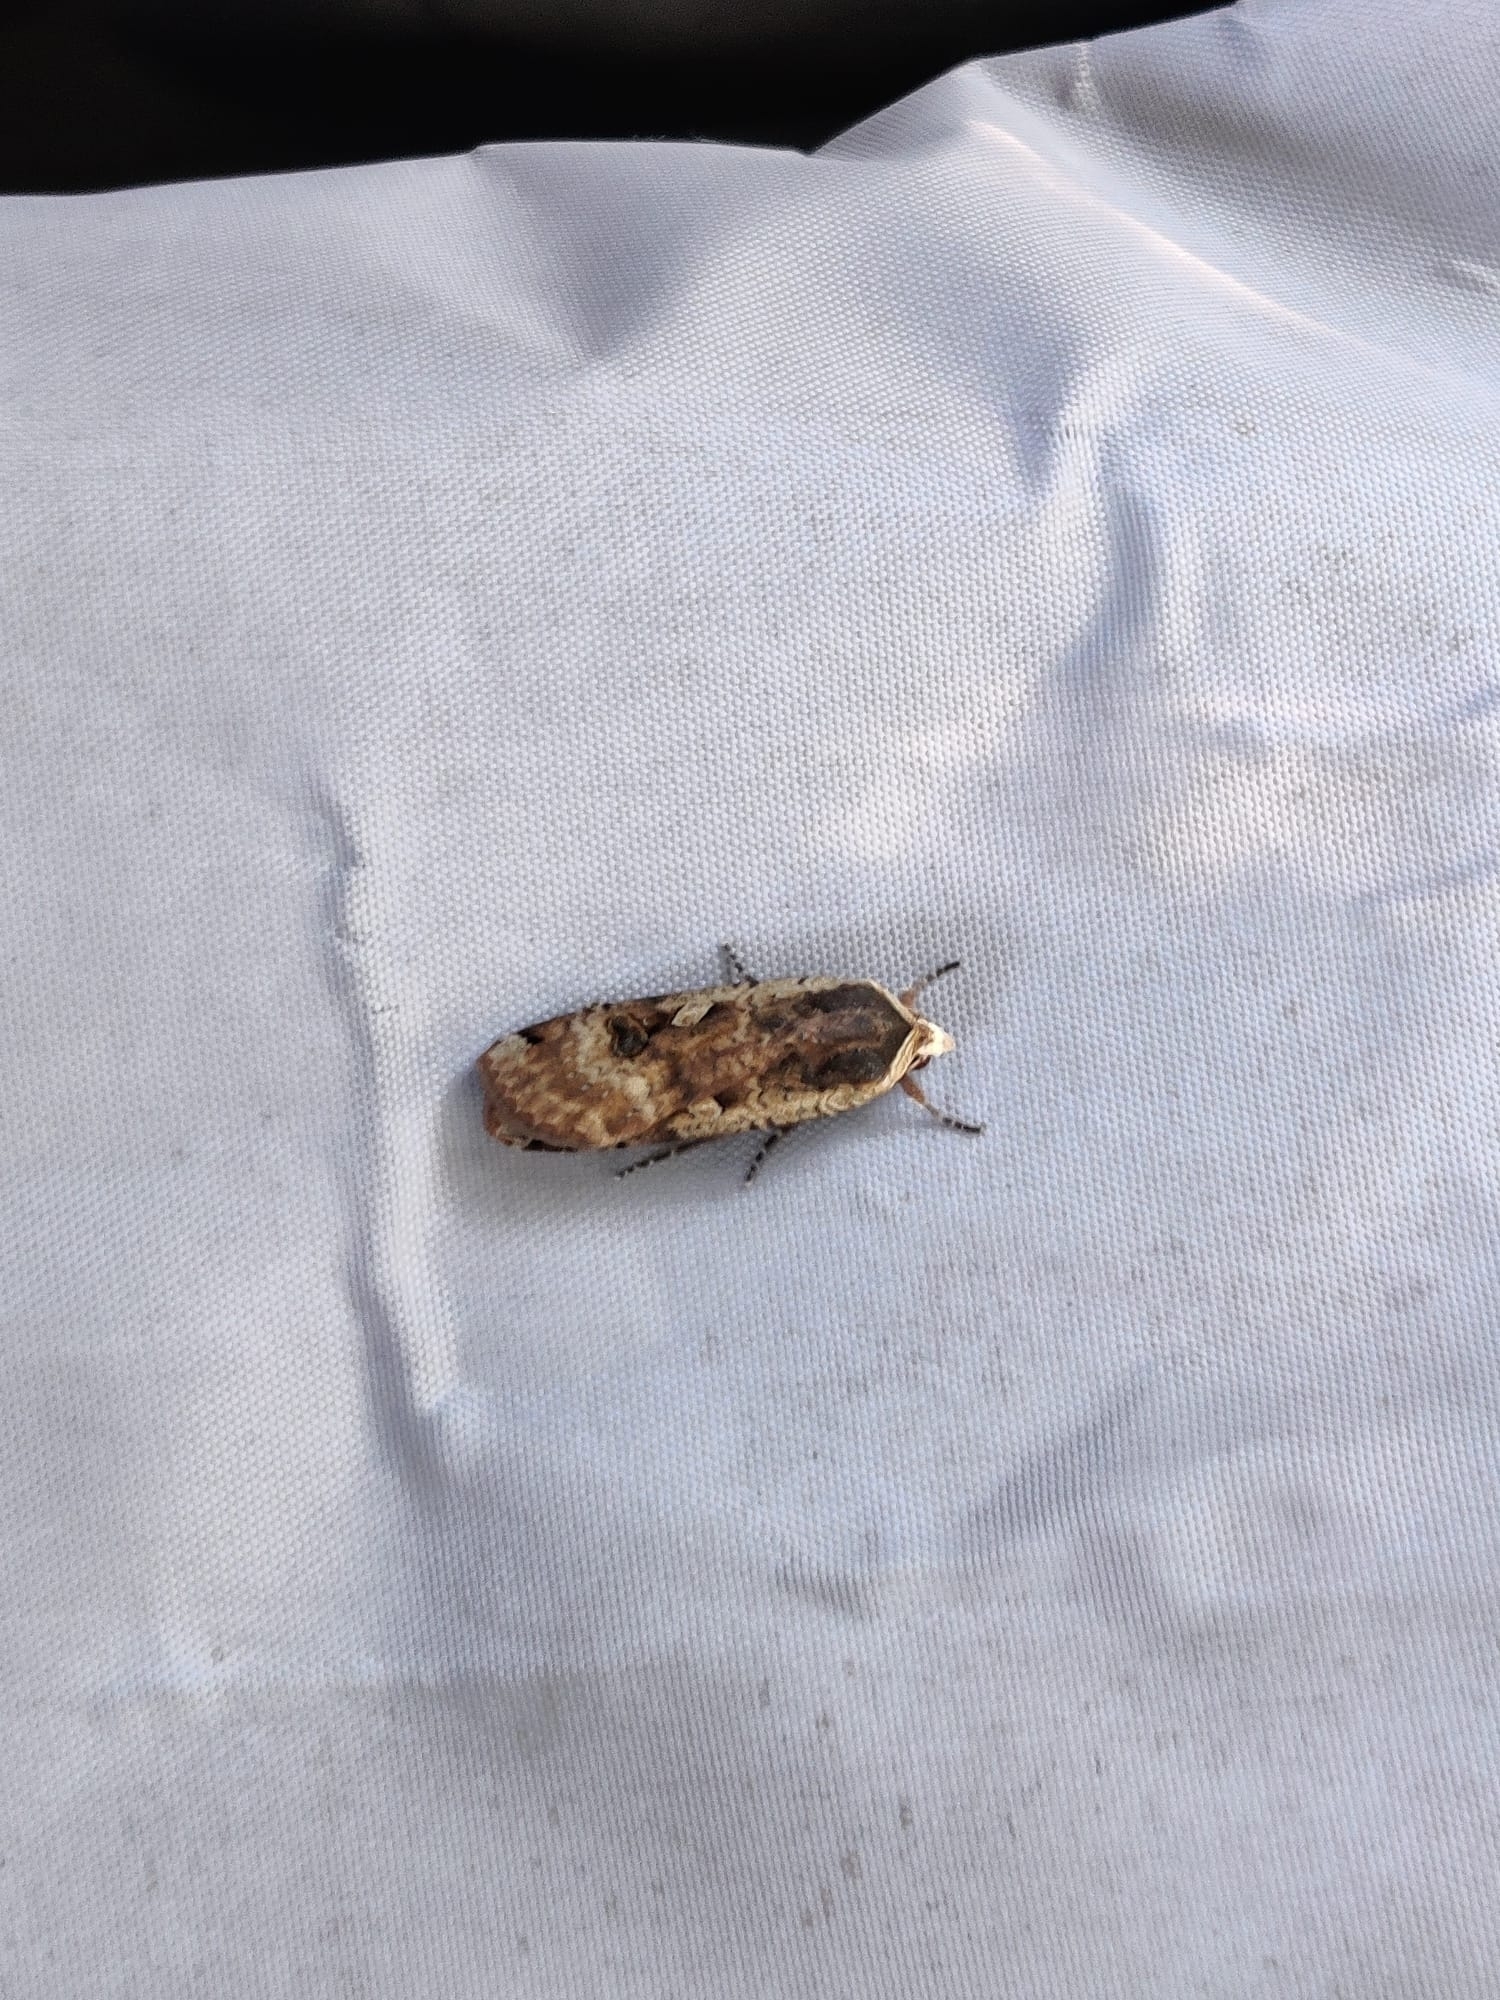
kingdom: Animalia
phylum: Arthropoda
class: Insecta
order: Lepidoptera
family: Noctuidae
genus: Noctua
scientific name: Noctua pronuba
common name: Large yellow underwing
